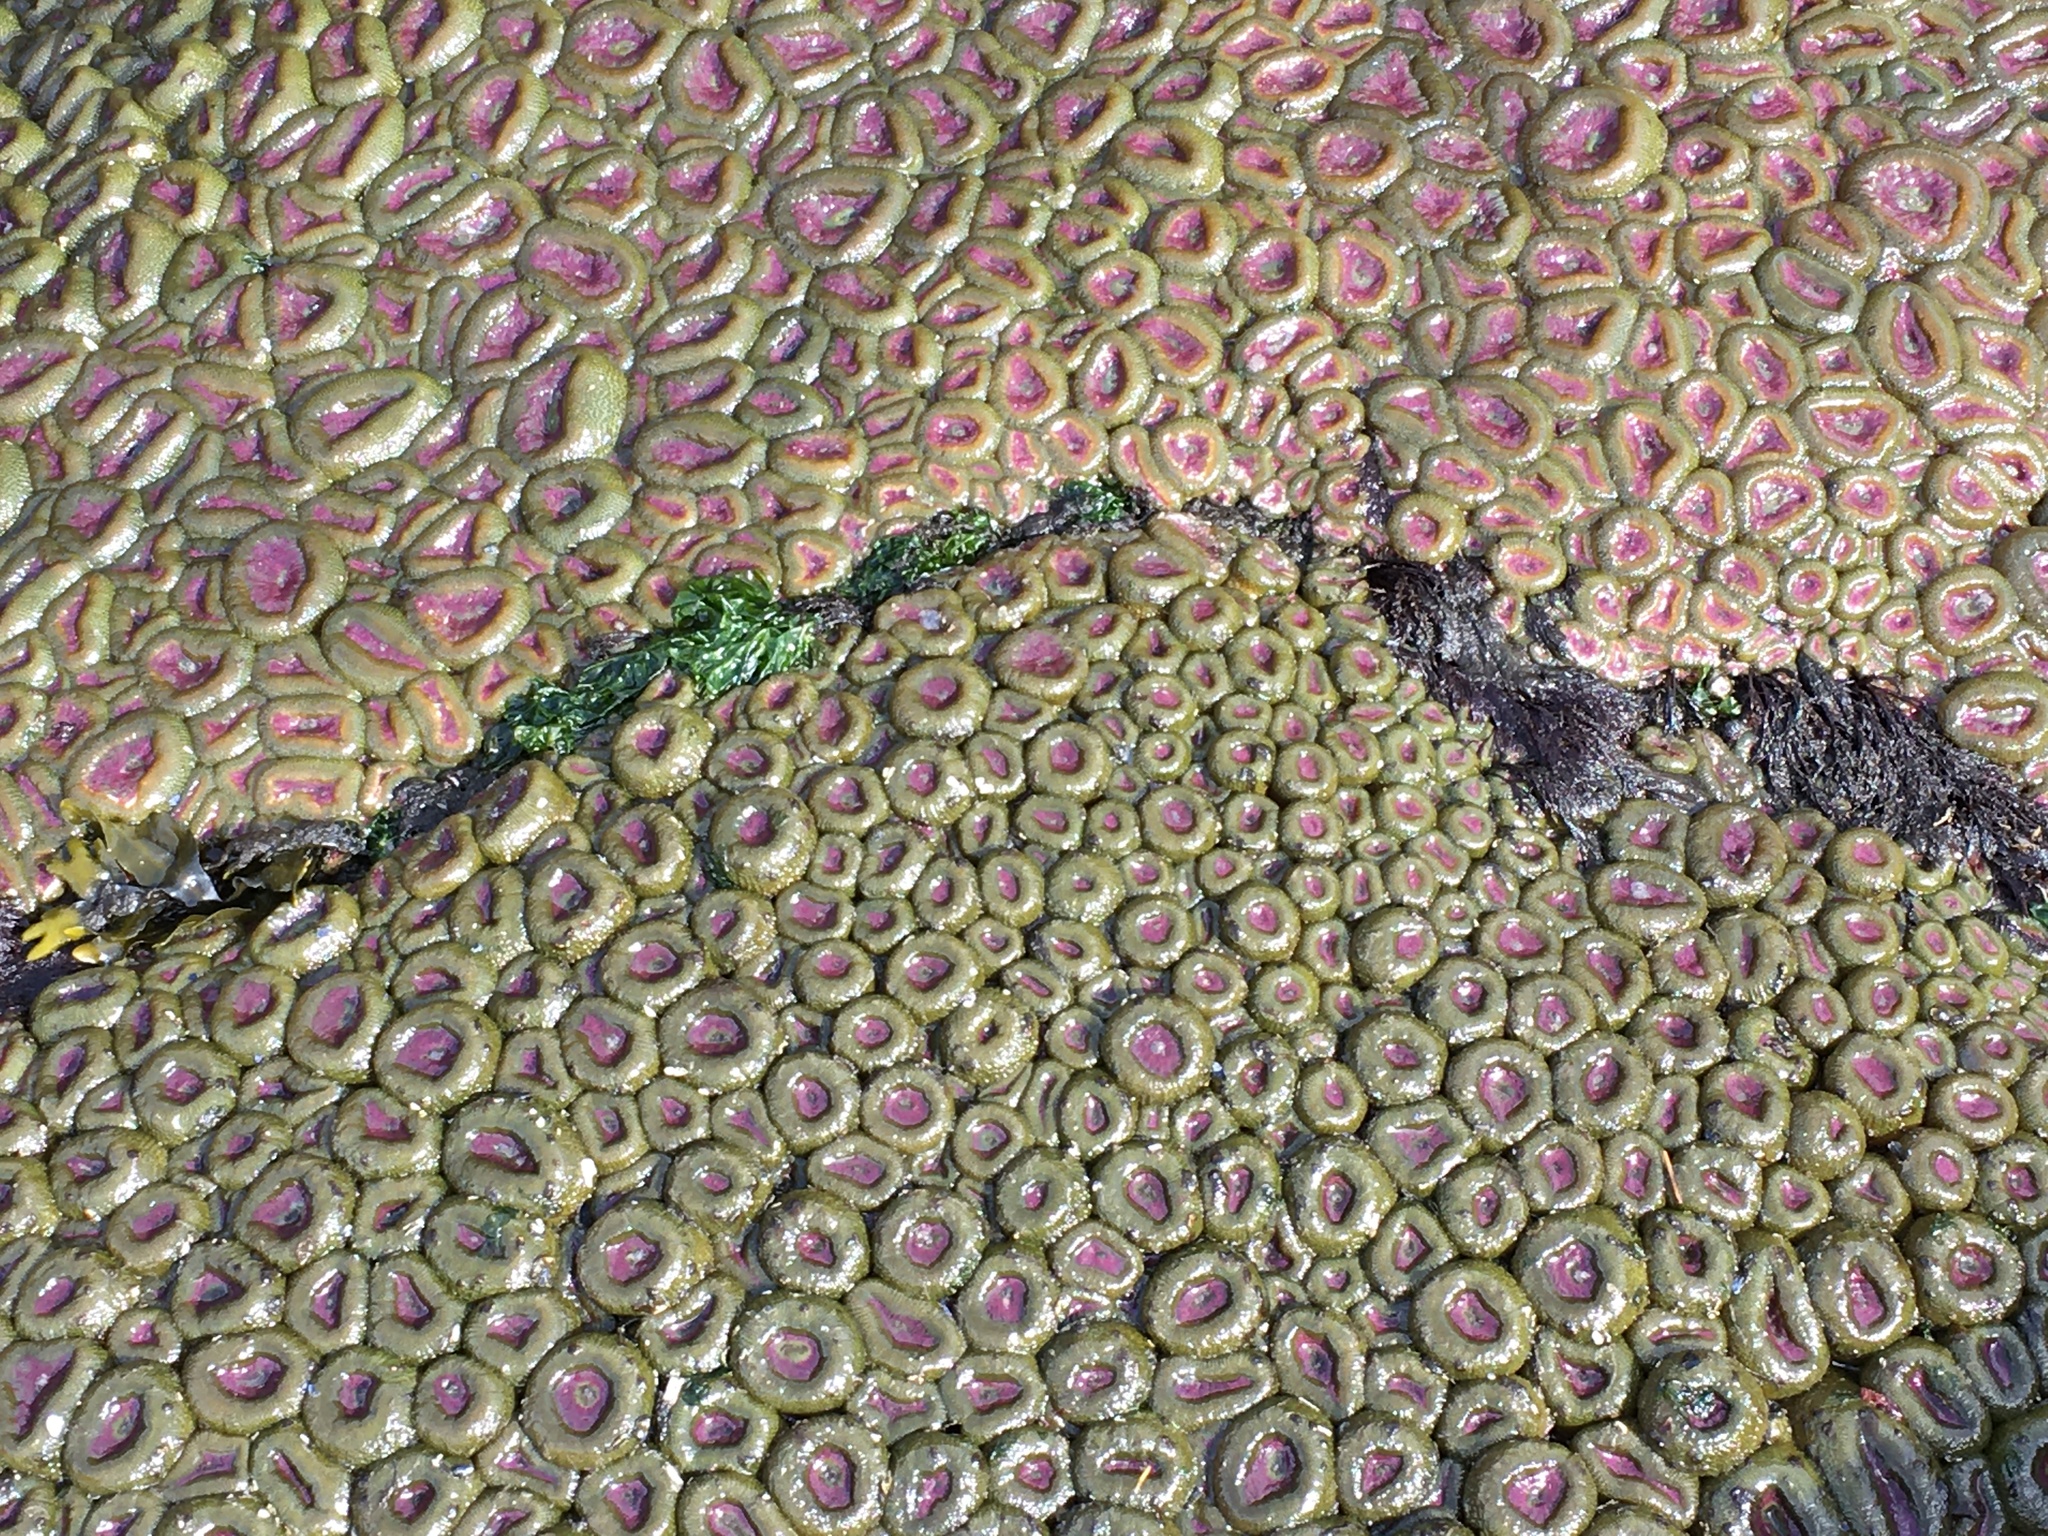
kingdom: Animalia
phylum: Cnidaria
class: Anthozoa
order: Actiniaria
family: Actiniidae
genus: Anthopleura
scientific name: Anthopleura elegantissima
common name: Clonal anemone
